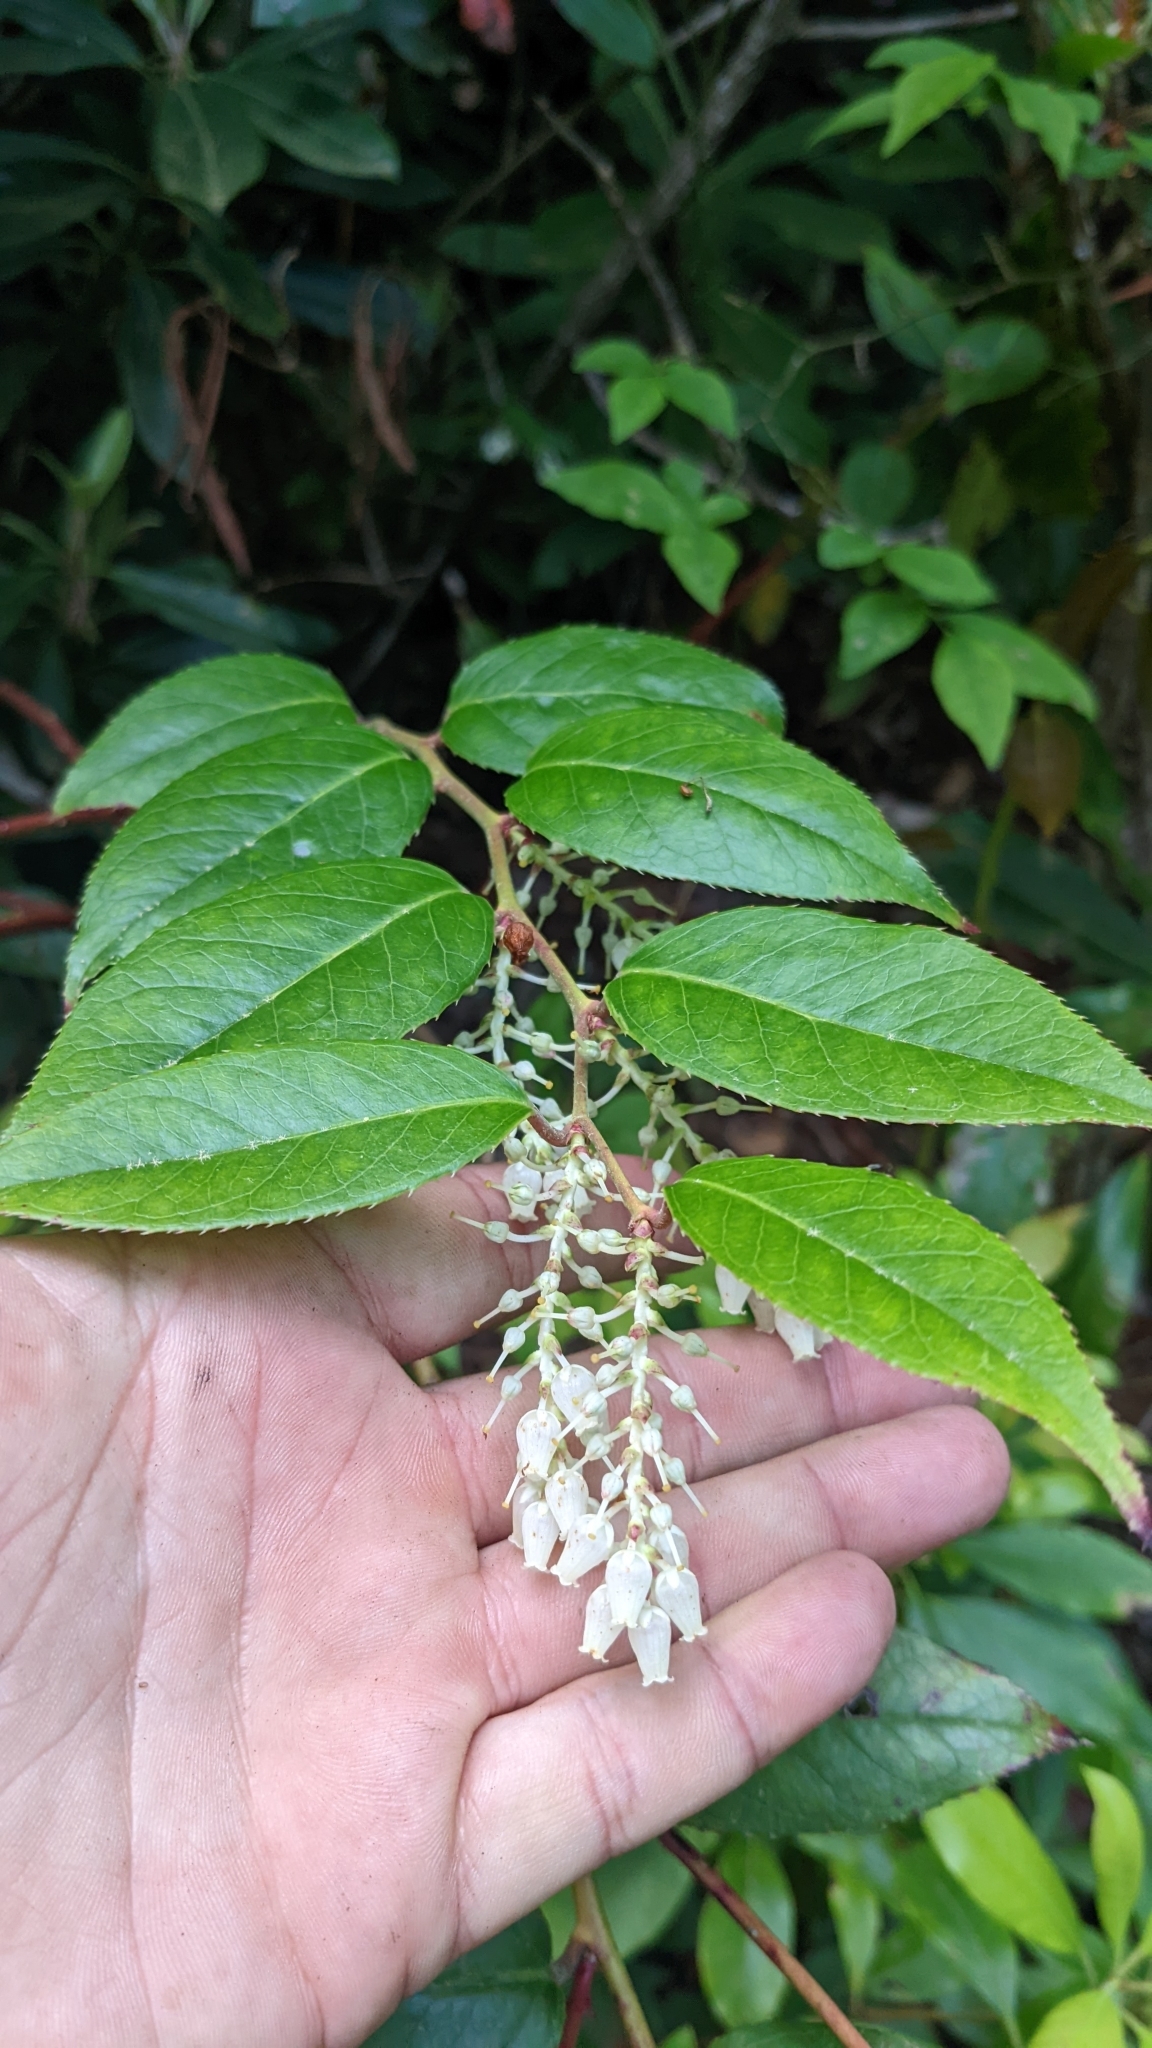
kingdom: Plantae
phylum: Tracheophyta
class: Magnoliopsida
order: Ericales
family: Ericaceae
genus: Leucothoe
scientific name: Leucothoe fontanesiana
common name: Fetterbush
